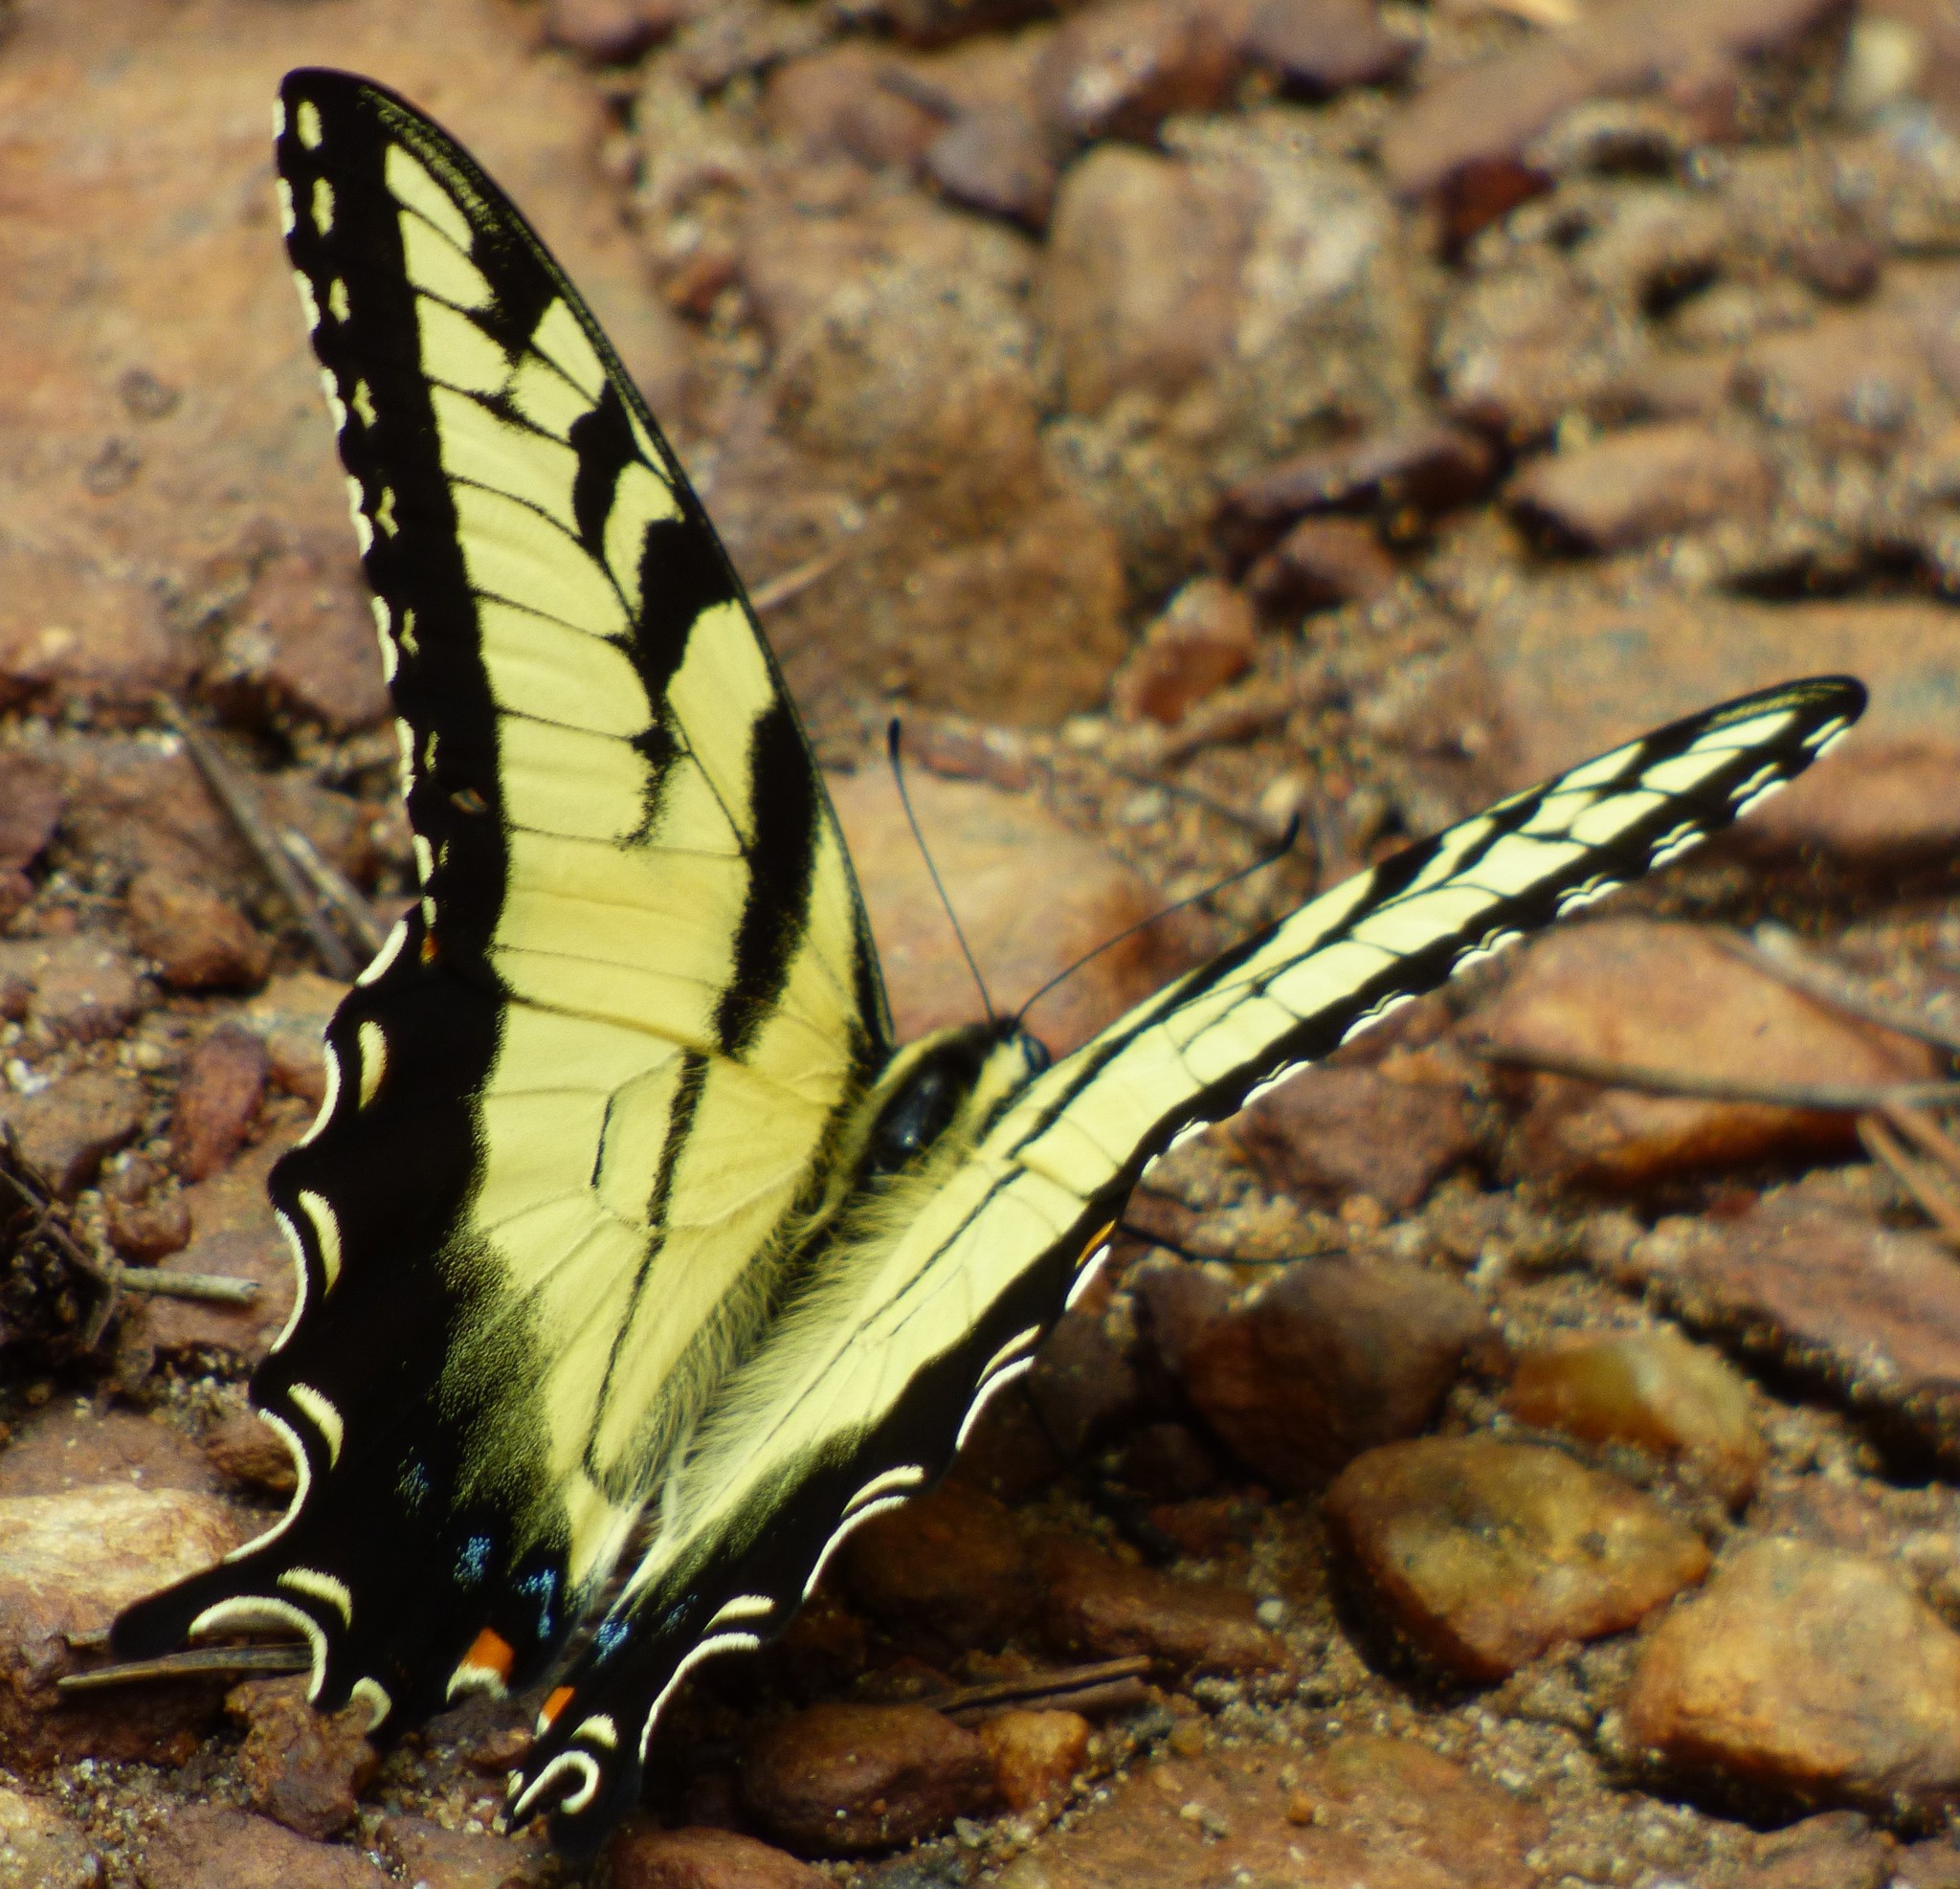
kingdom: Animalia
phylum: Arthropoda
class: Insecta
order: Lepidoptera
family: Papilionidae
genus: Papilio
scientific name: Papilio glaucus
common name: Tiger swallowtail
